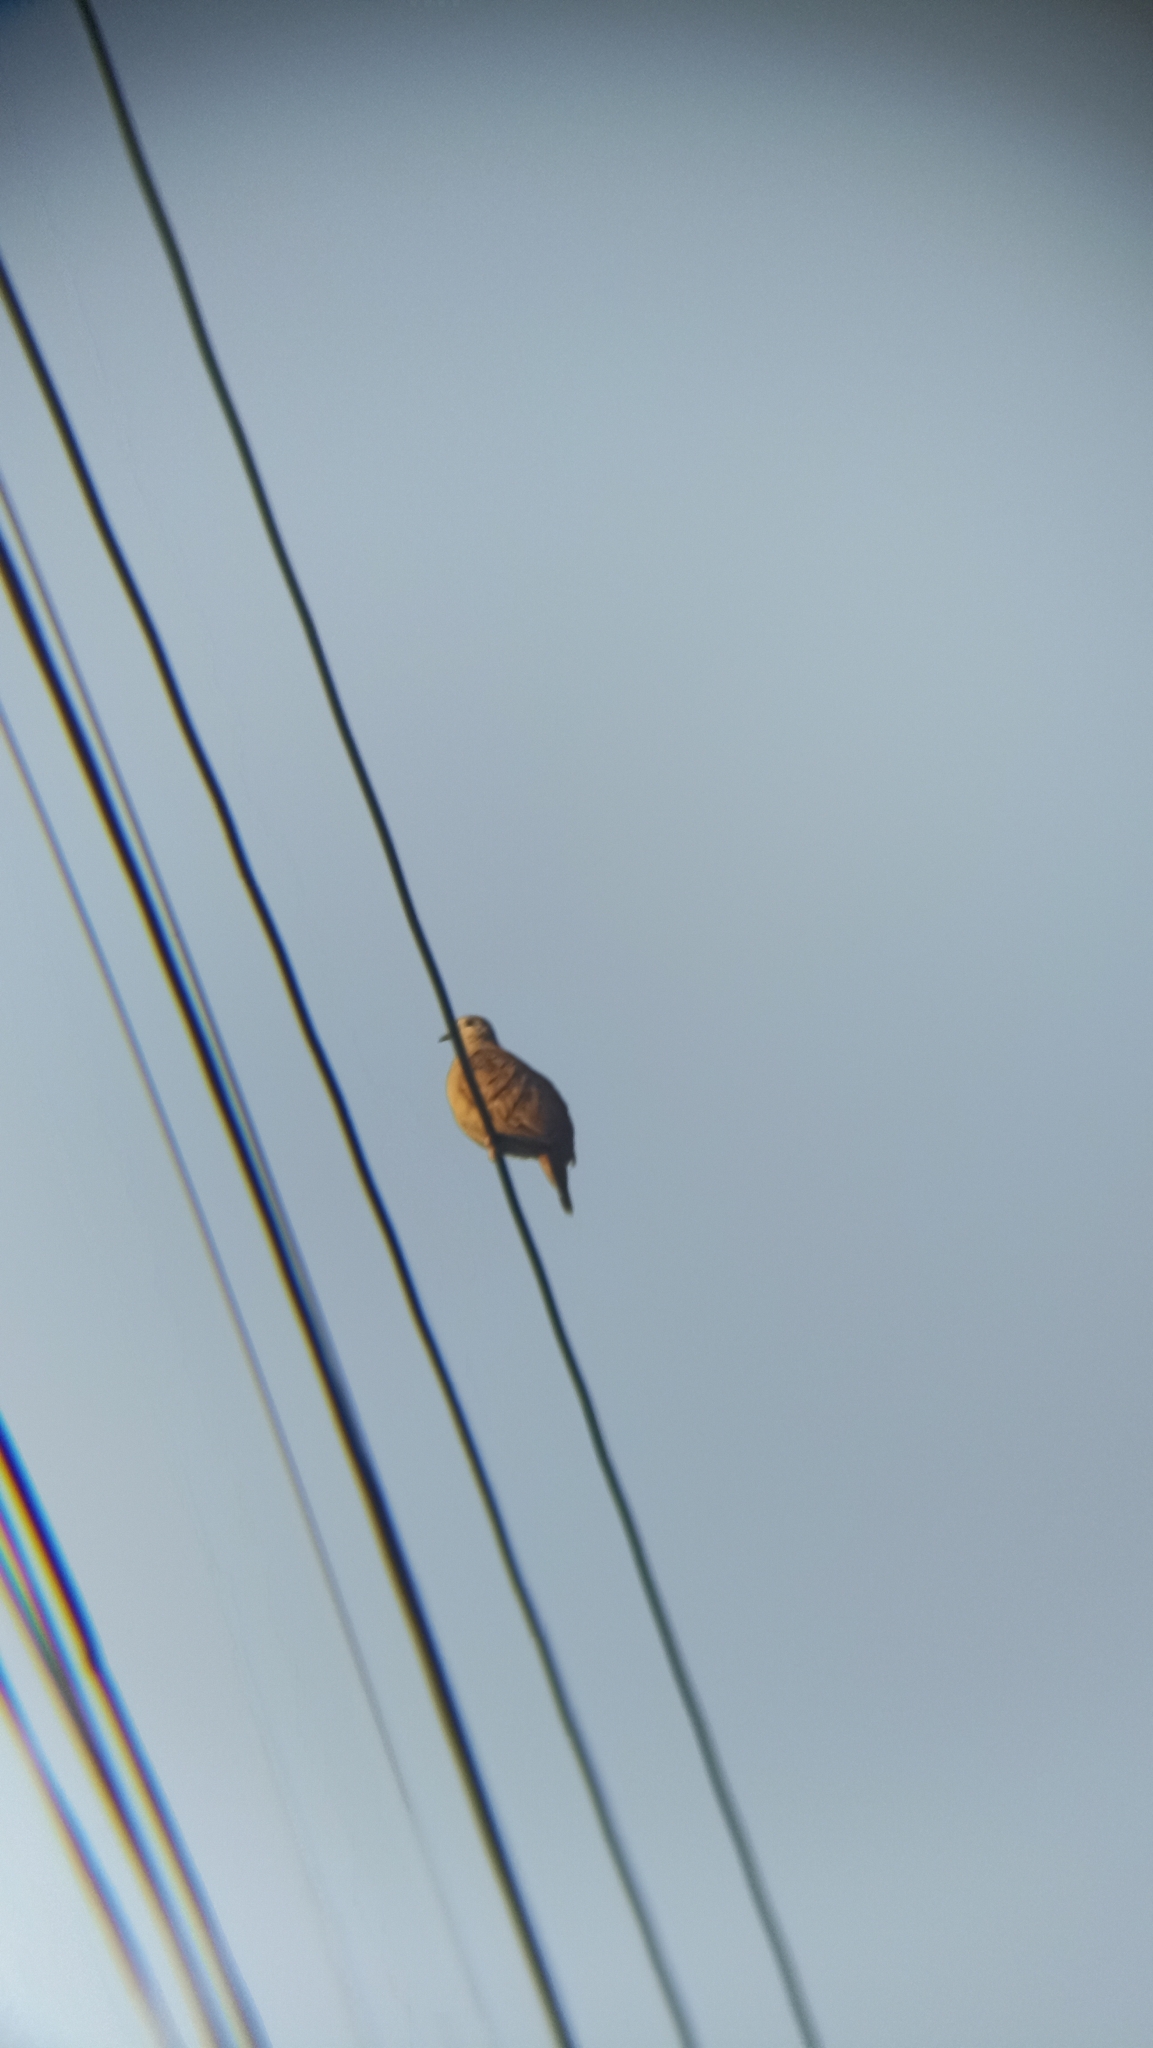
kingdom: Animalia
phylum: Chordata
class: Aves
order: Columbiformes
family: Columbidae
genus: Columbina
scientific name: Columbina talpacoti
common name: Ruddy ground dove
